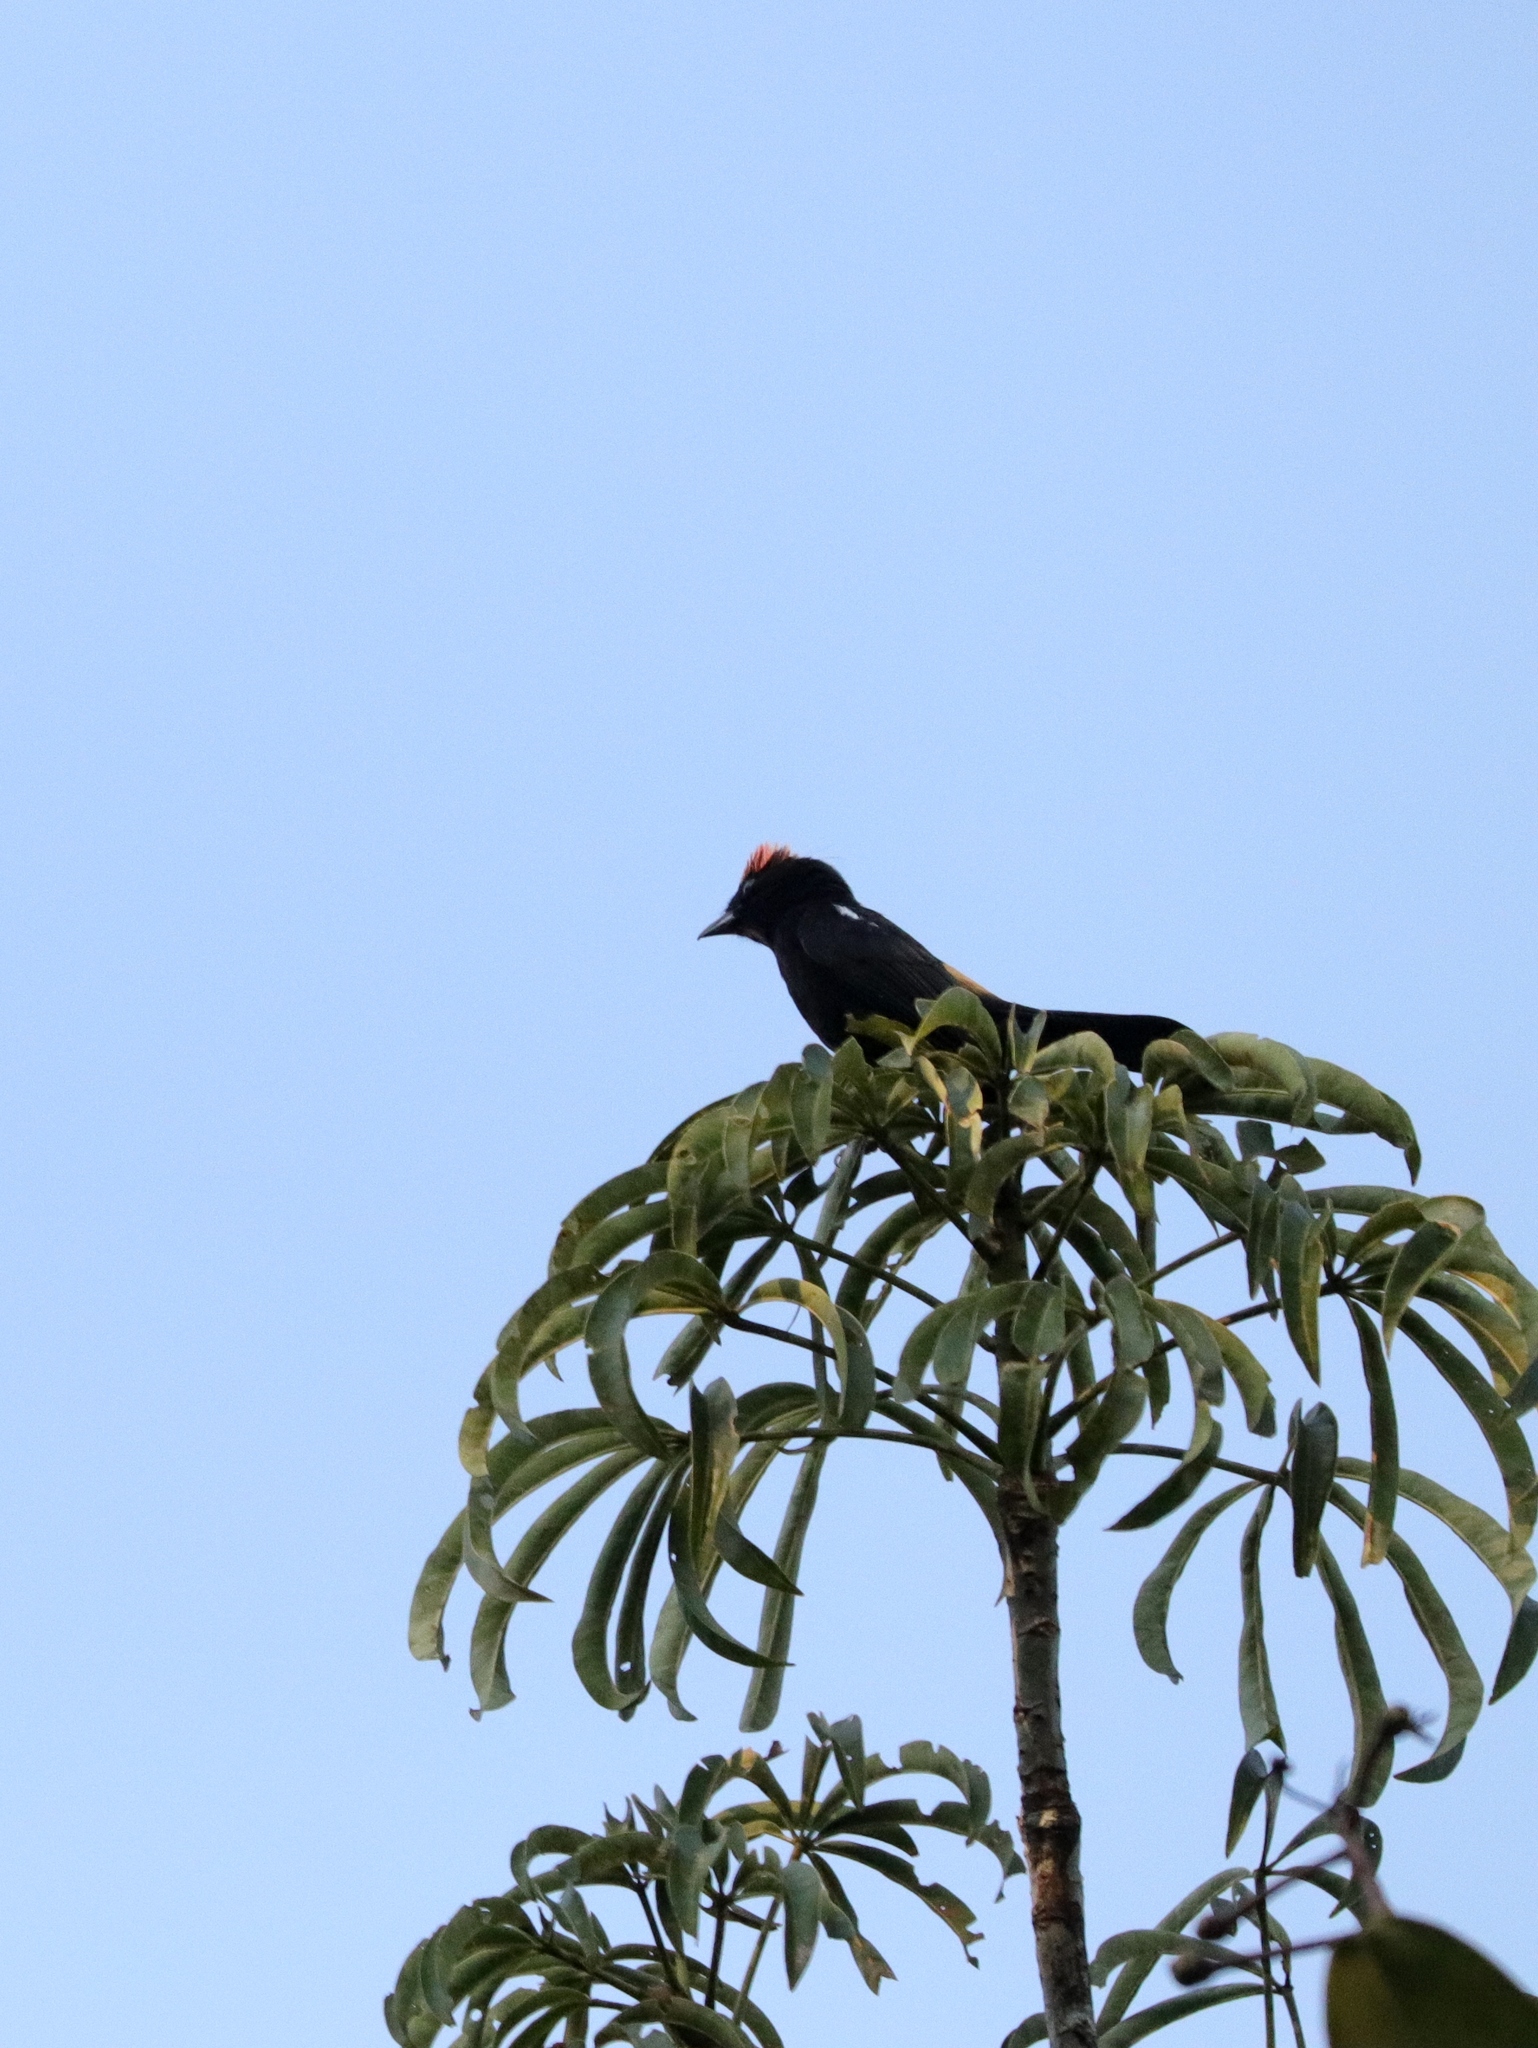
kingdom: Animalia
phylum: Chordata
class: Aves
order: Passeriformes
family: Thraupidae
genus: Loriotus
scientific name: Loriotus cristatus
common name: Flame-crested tanager
